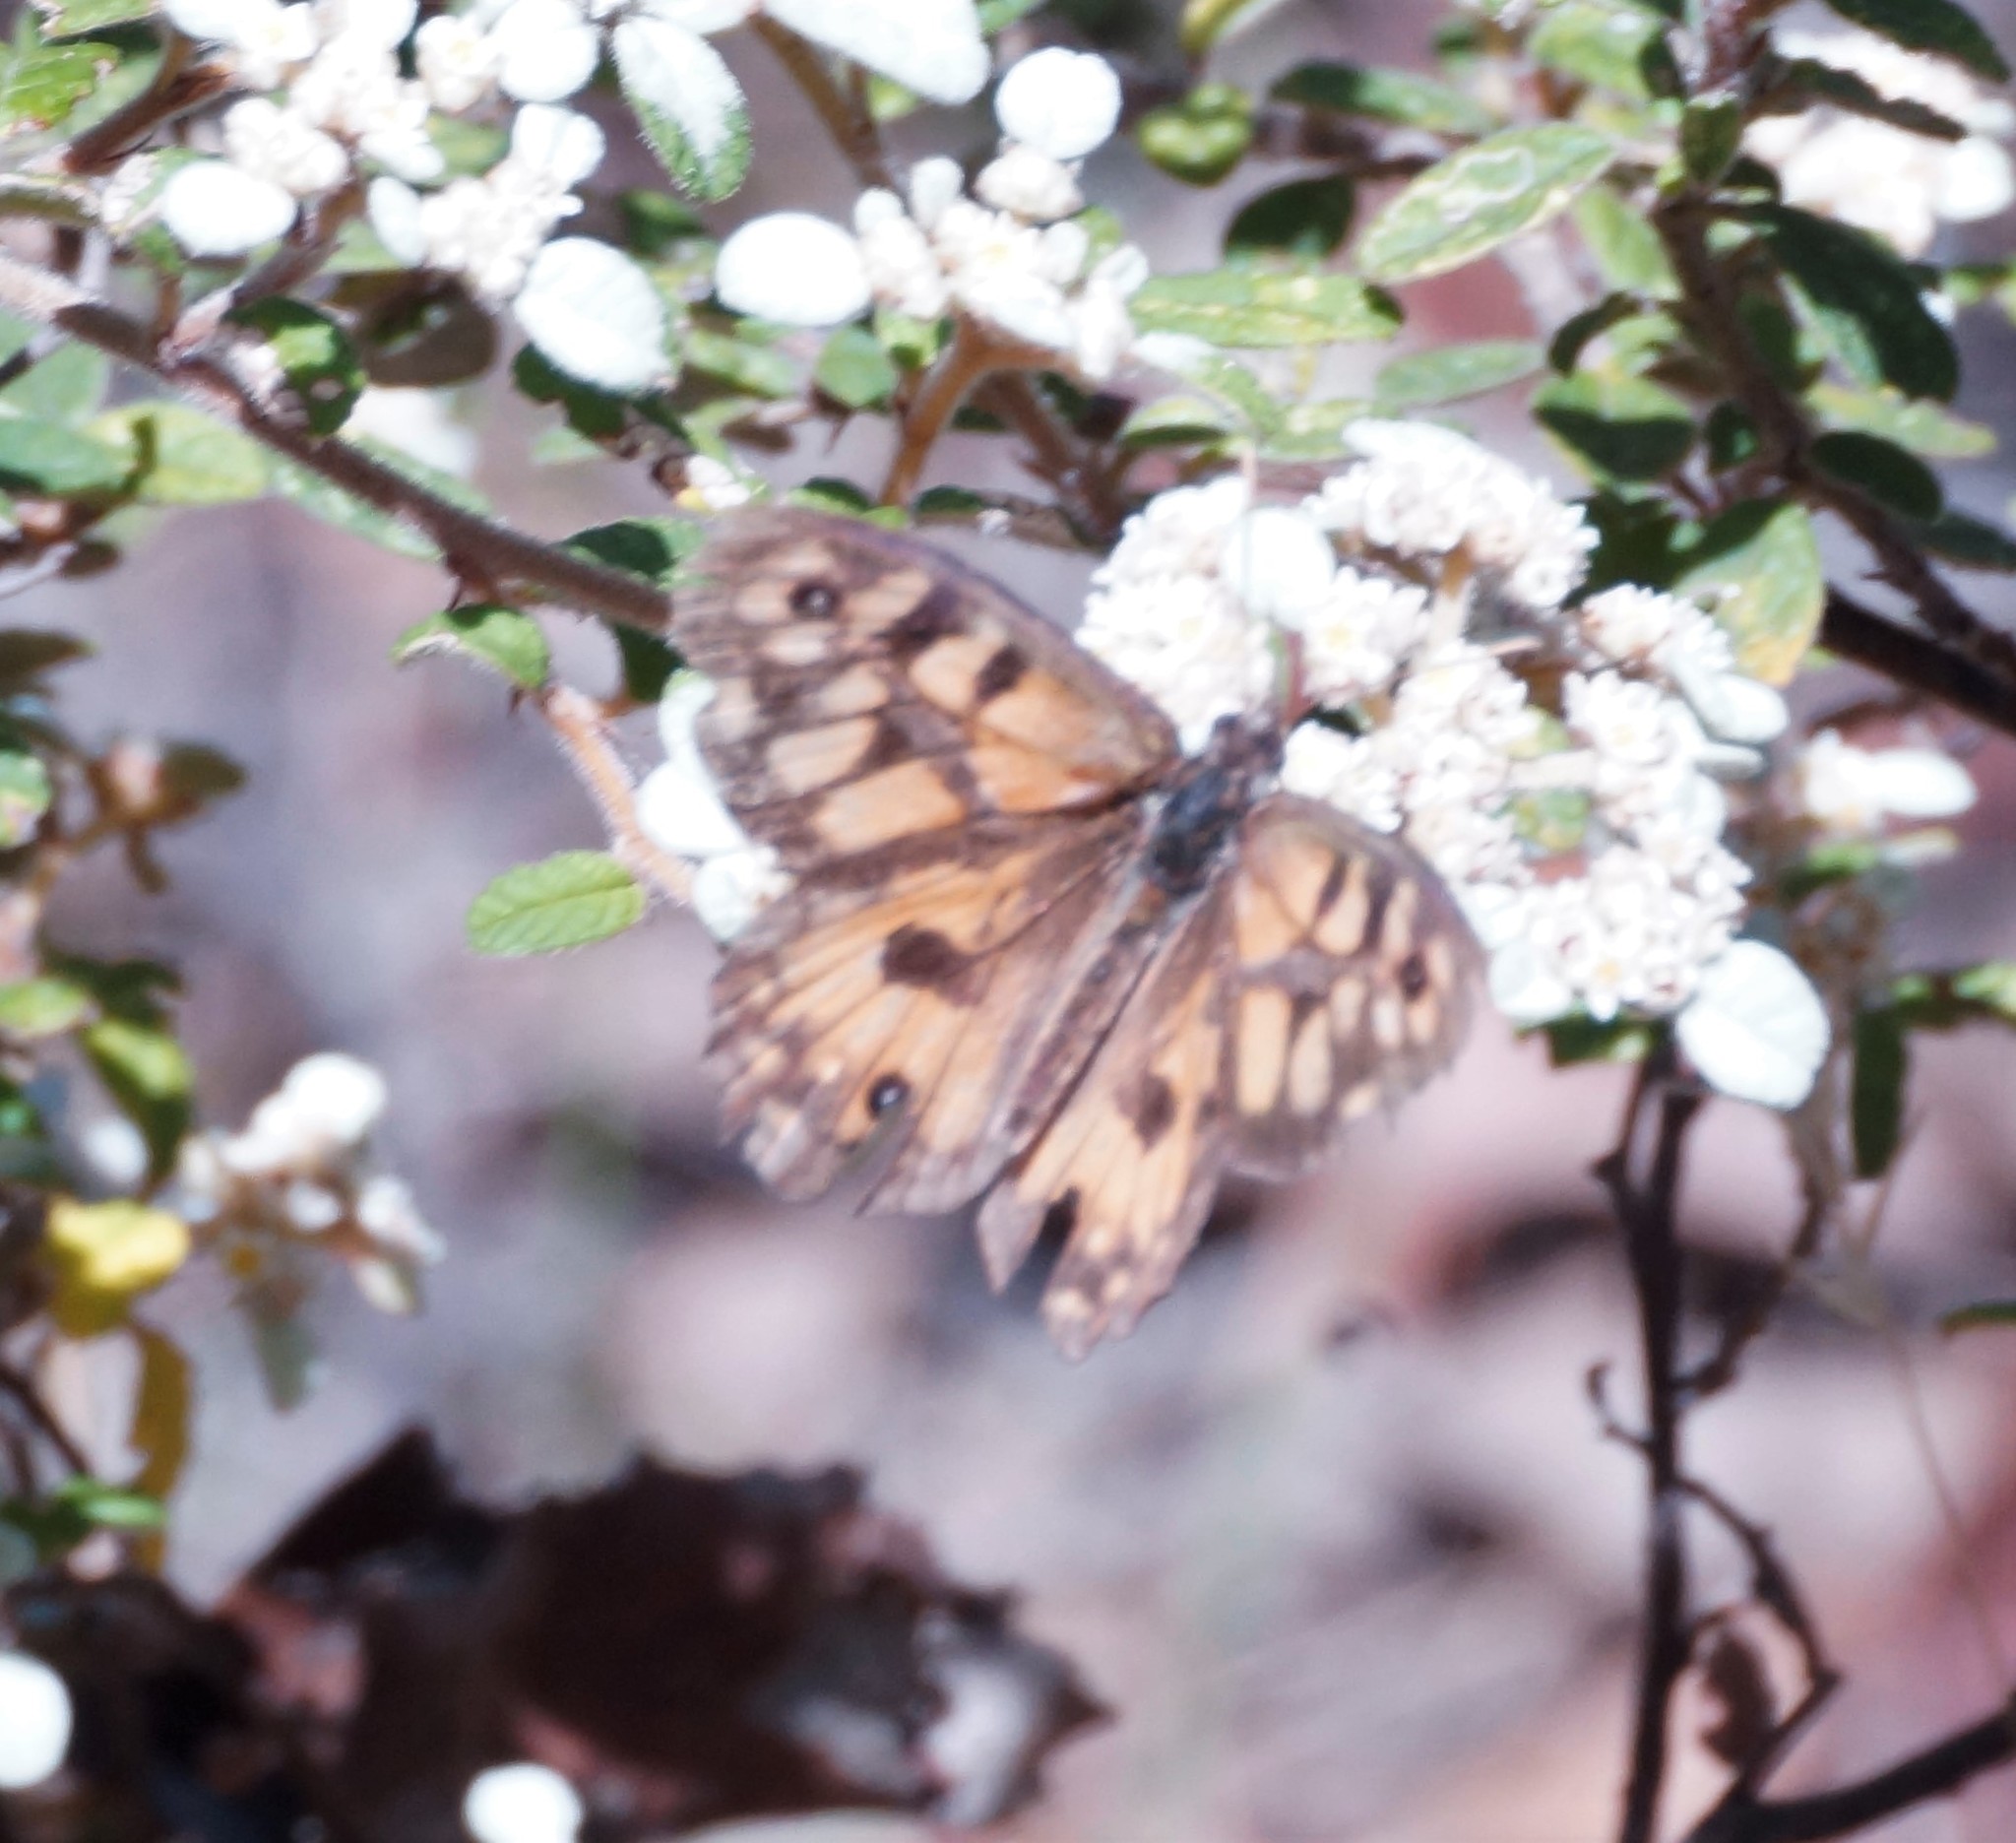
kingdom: Animalia
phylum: Arthropoda
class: Insecta
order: Lepidoptera
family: Nymphalidae
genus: Geitoneura
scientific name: Geitoneura klugii
